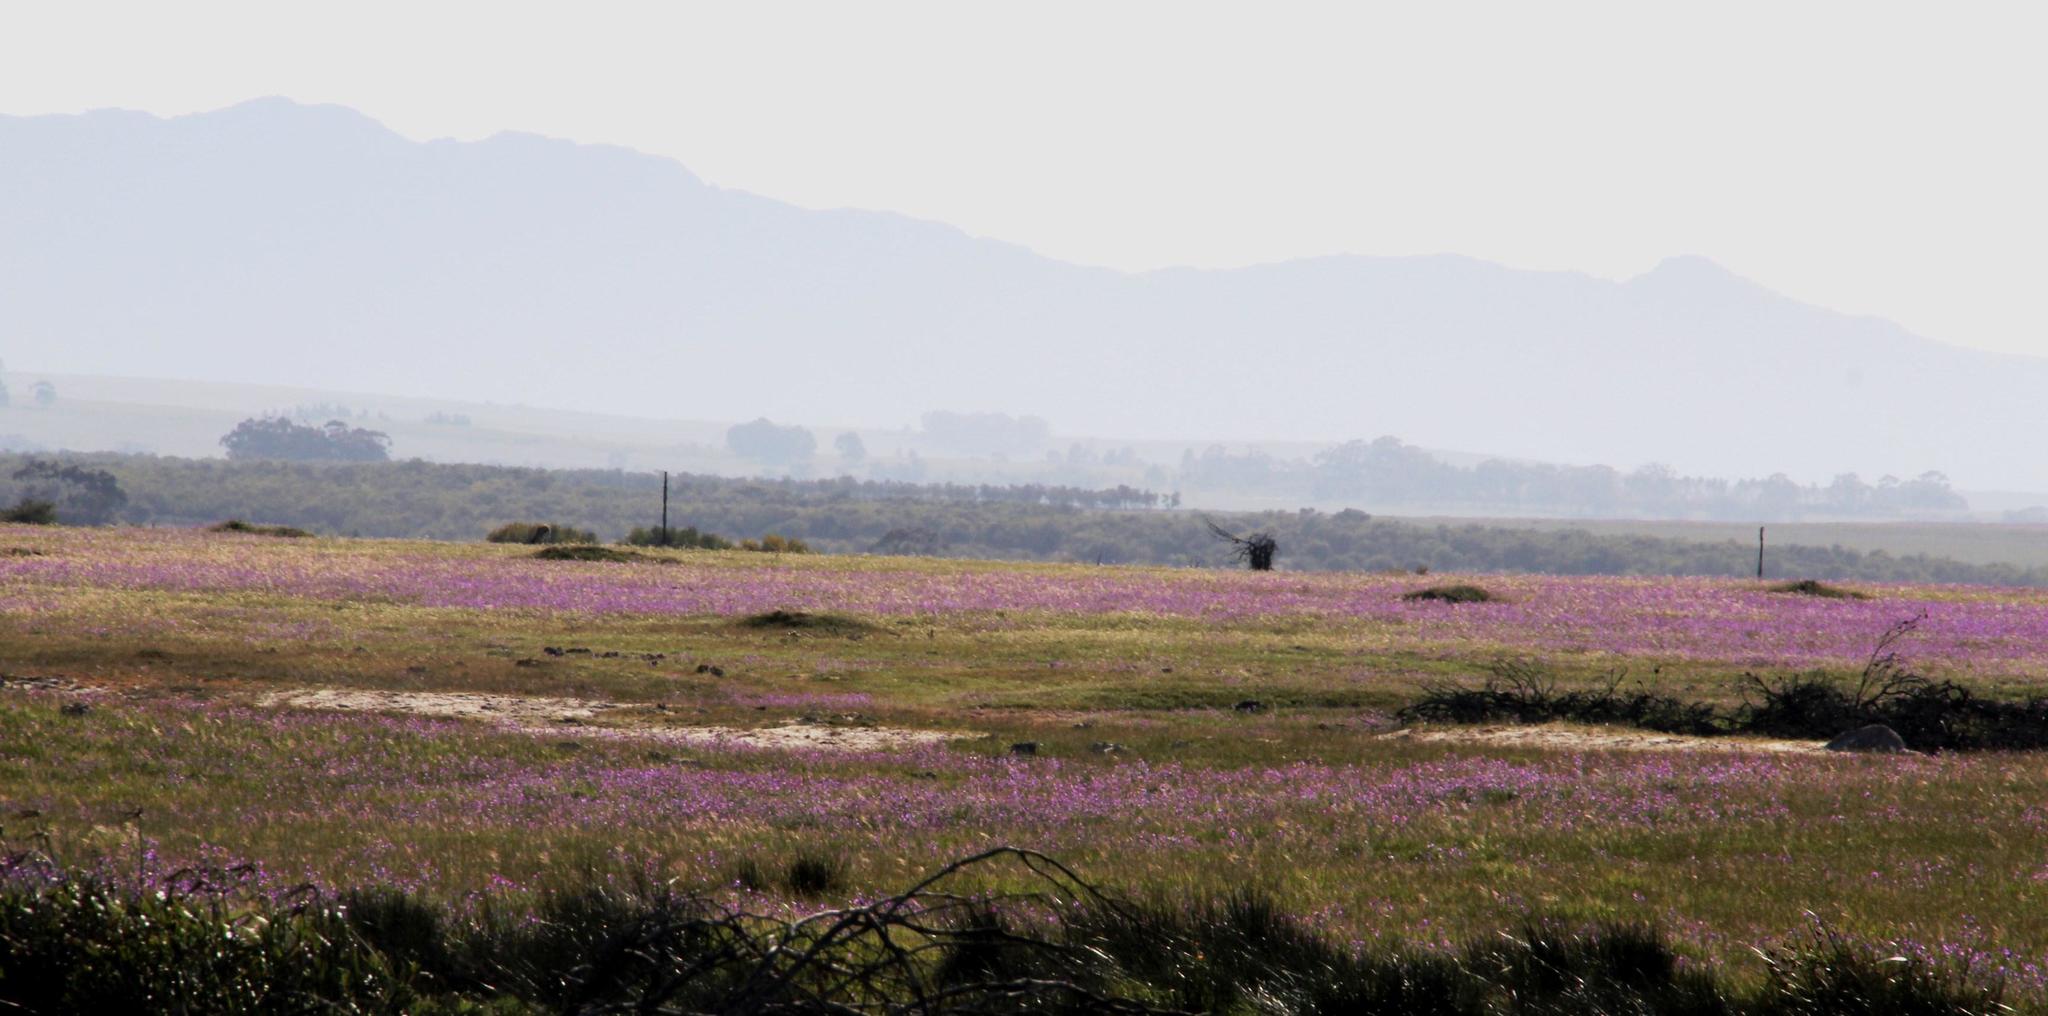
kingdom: Plantae
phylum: Tracheophyta
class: Magnoliopsida
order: Boraginales
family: Boraginaceae
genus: Echium
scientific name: Echium plantagineum
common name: Purple viper's-bugloss
